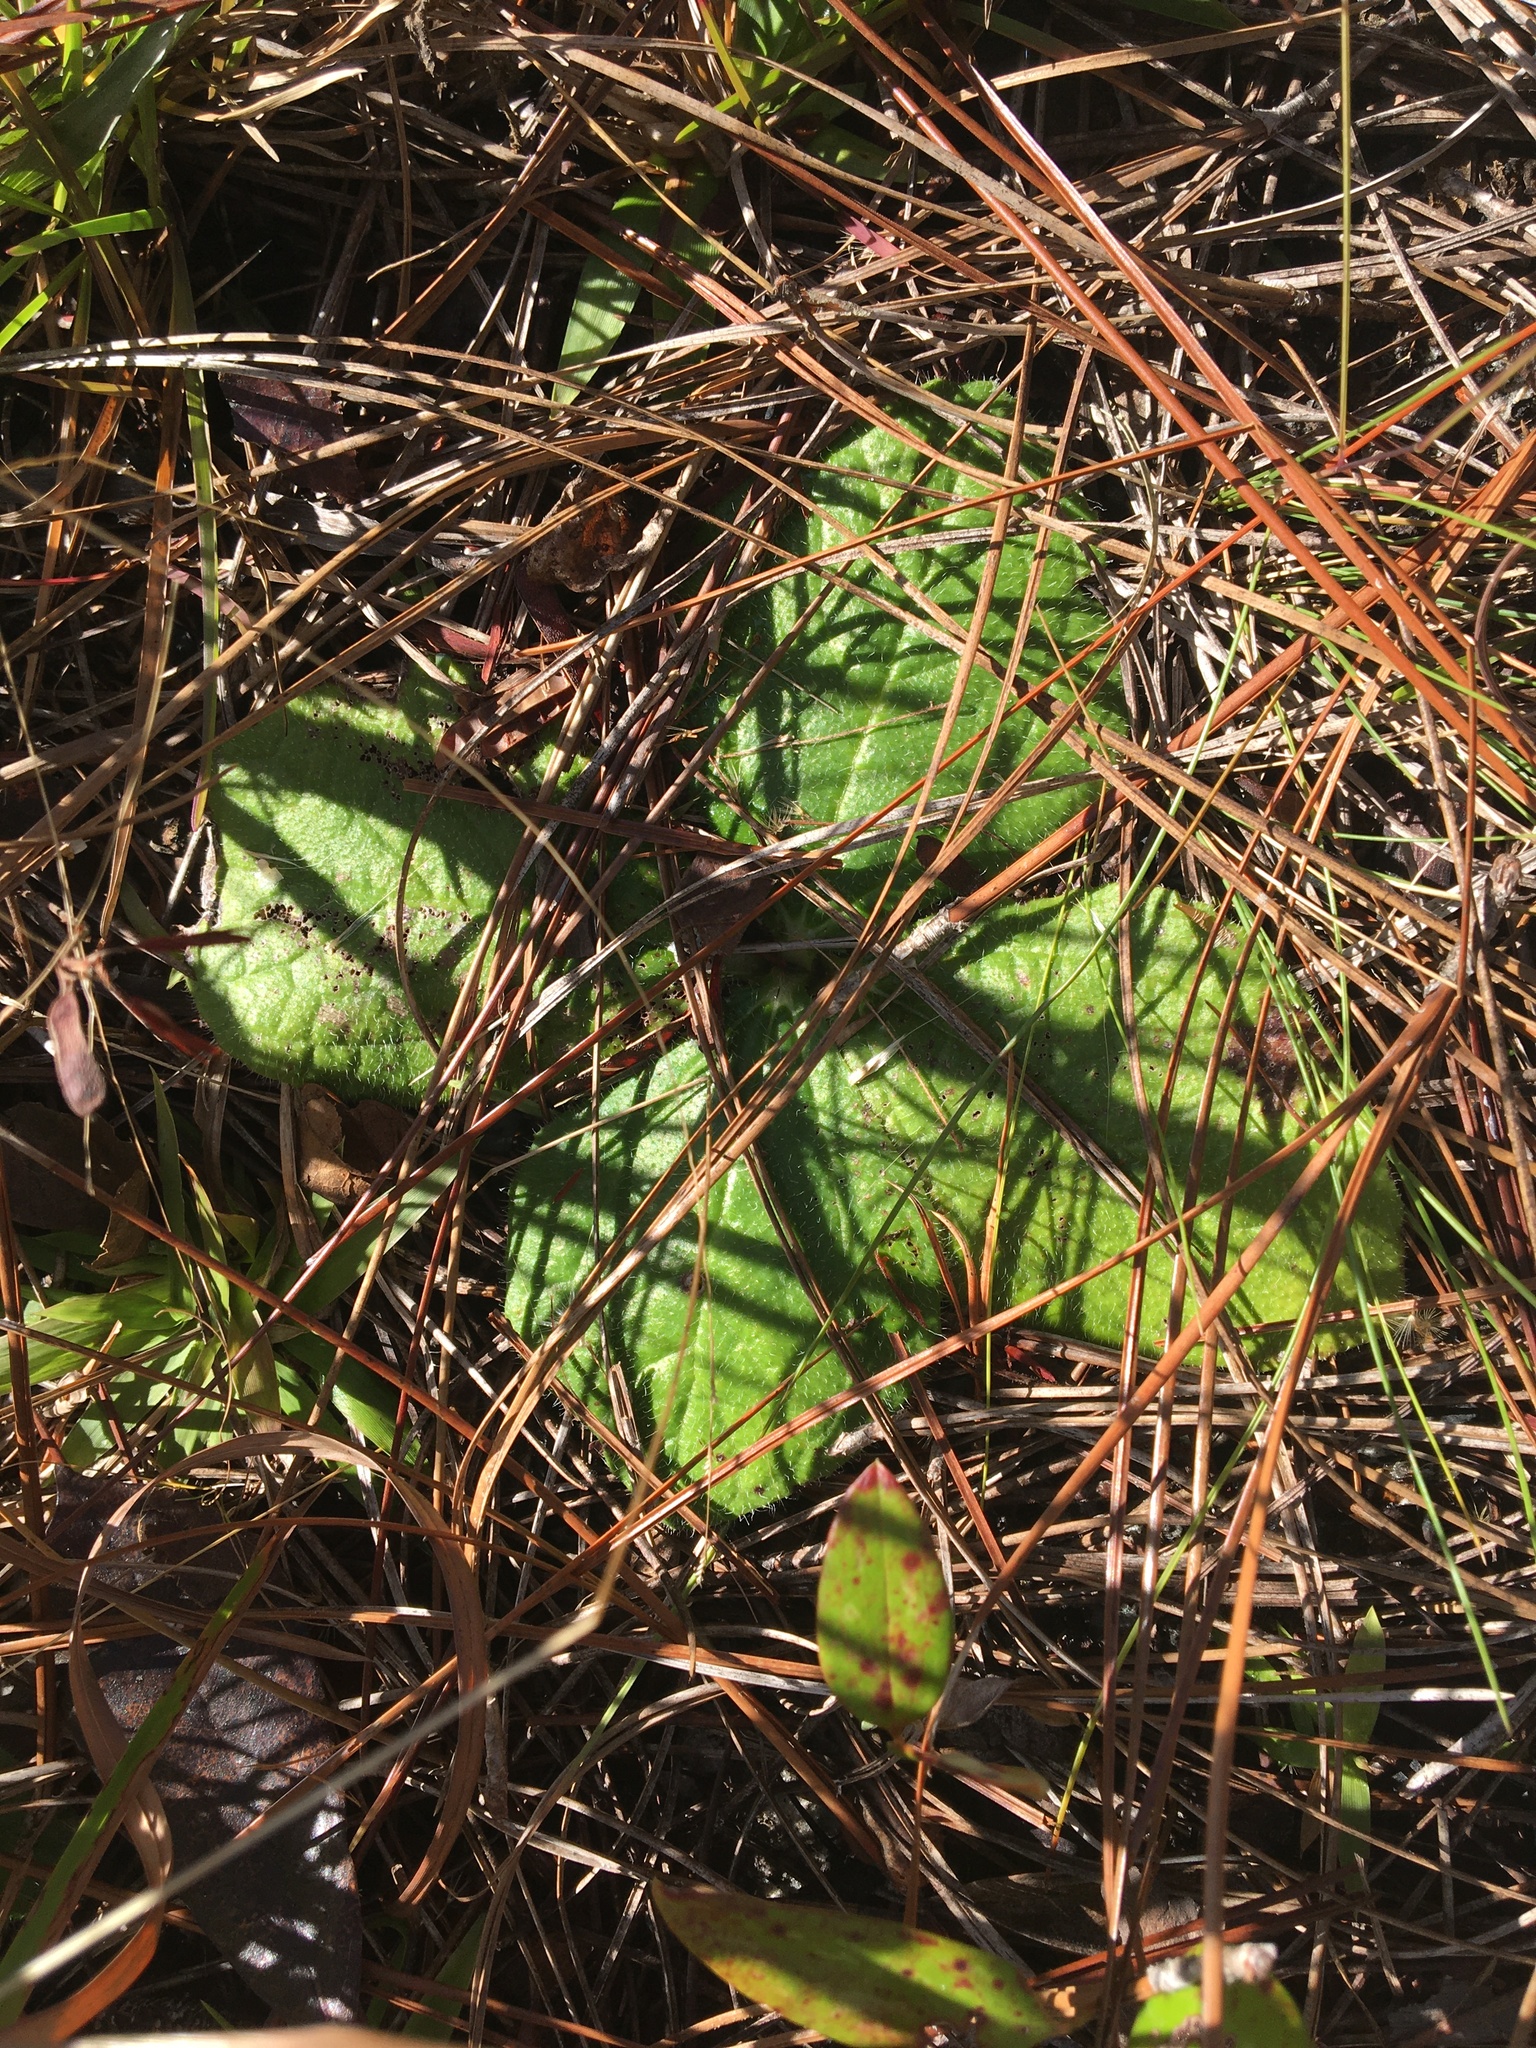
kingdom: Plantae
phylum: Tracheophyta
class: Magnoliopsida
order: Asterales
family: Asteraceae
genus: Helianthus
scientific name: Helianthus radula
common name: Pineland sunflower
